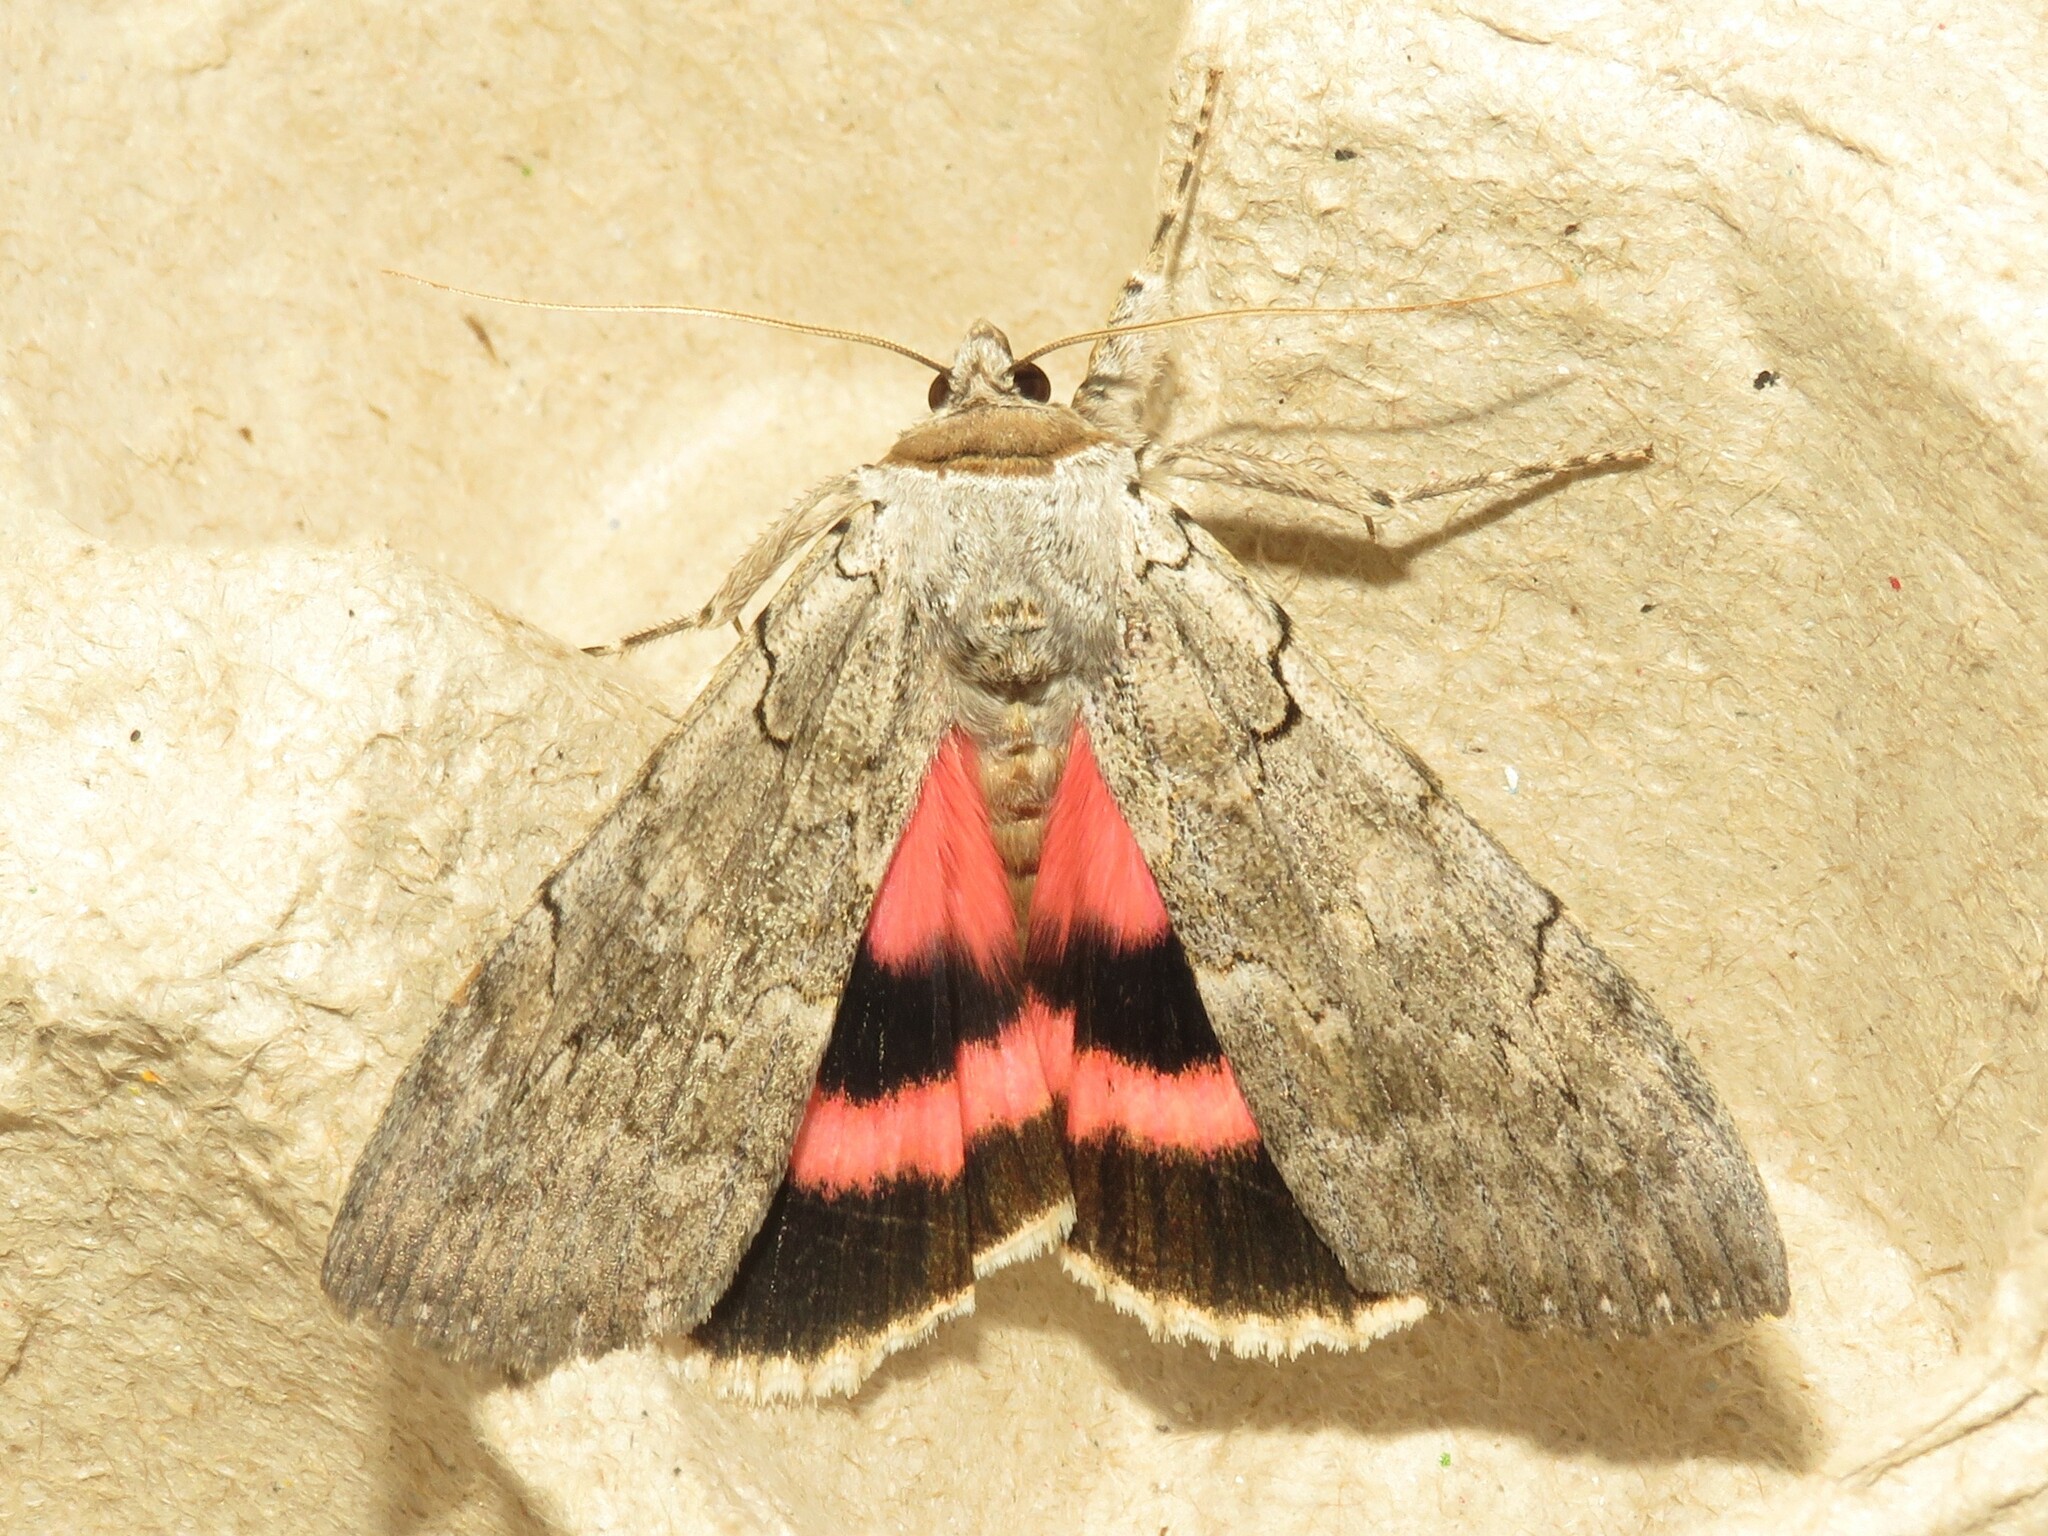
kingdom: Animalia
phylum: Arthropoda
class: Insecta
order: Lepidoptera
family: Erebidae
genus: Catocala
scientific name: Catocala concumbens
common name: Pink underwing
